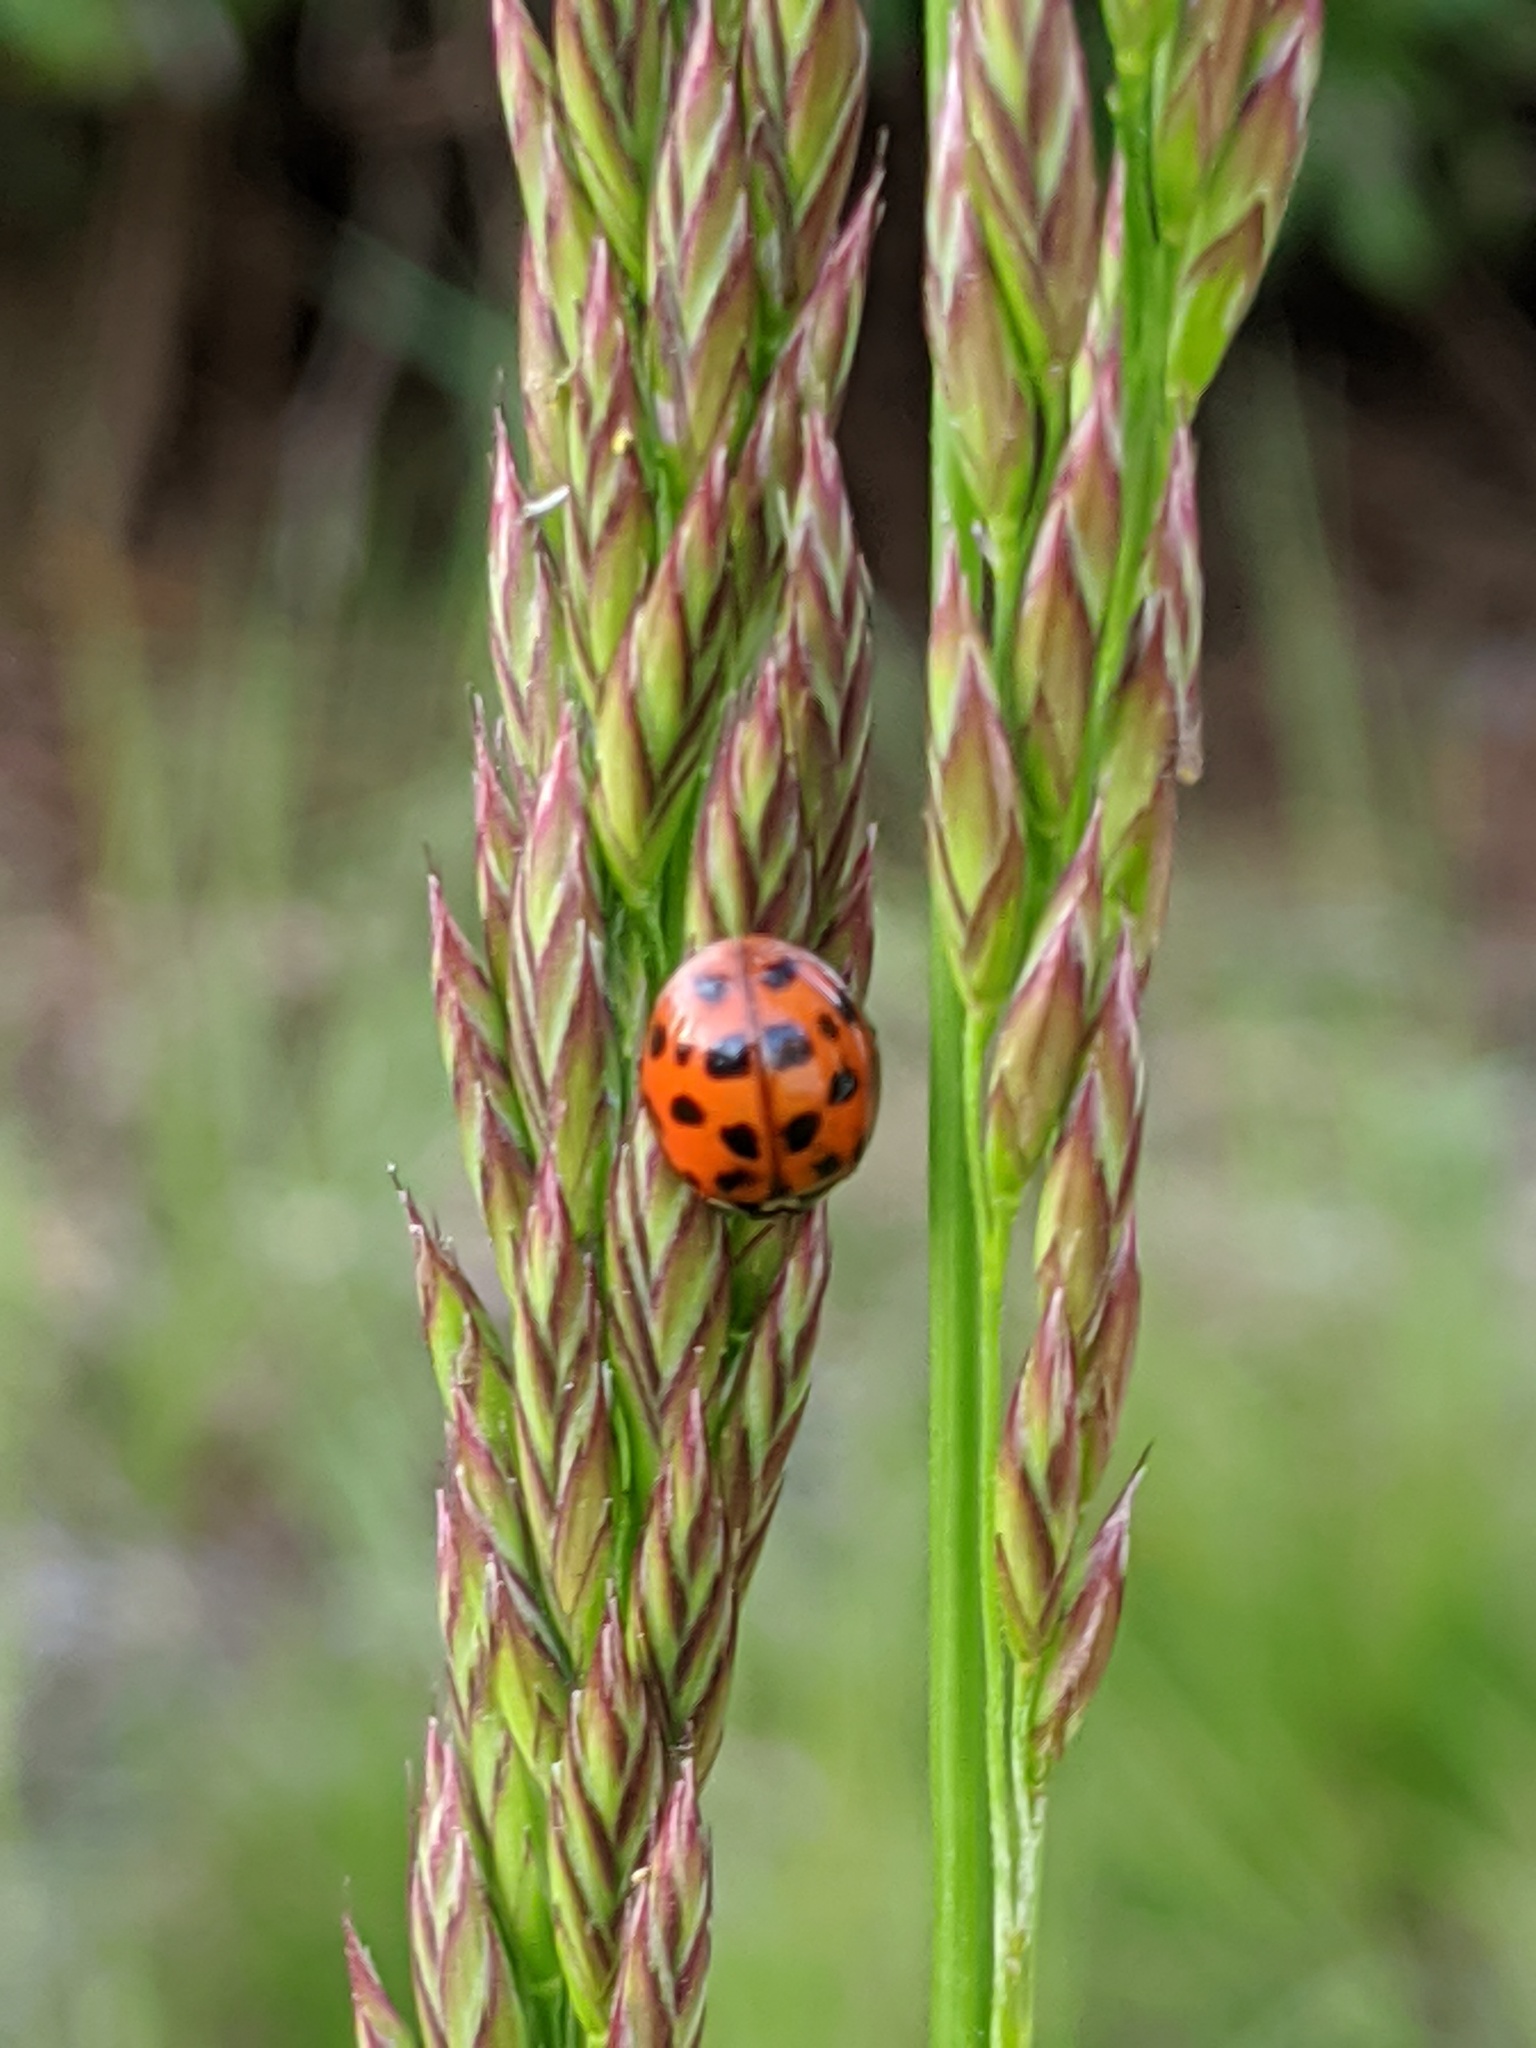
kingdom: Animalia
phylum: Arthropoda
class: Insecta
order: Coleoptera
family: Coccinellidae
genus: Harmonia
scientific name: Harmonia axyridis
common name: Harlequin ladybird
